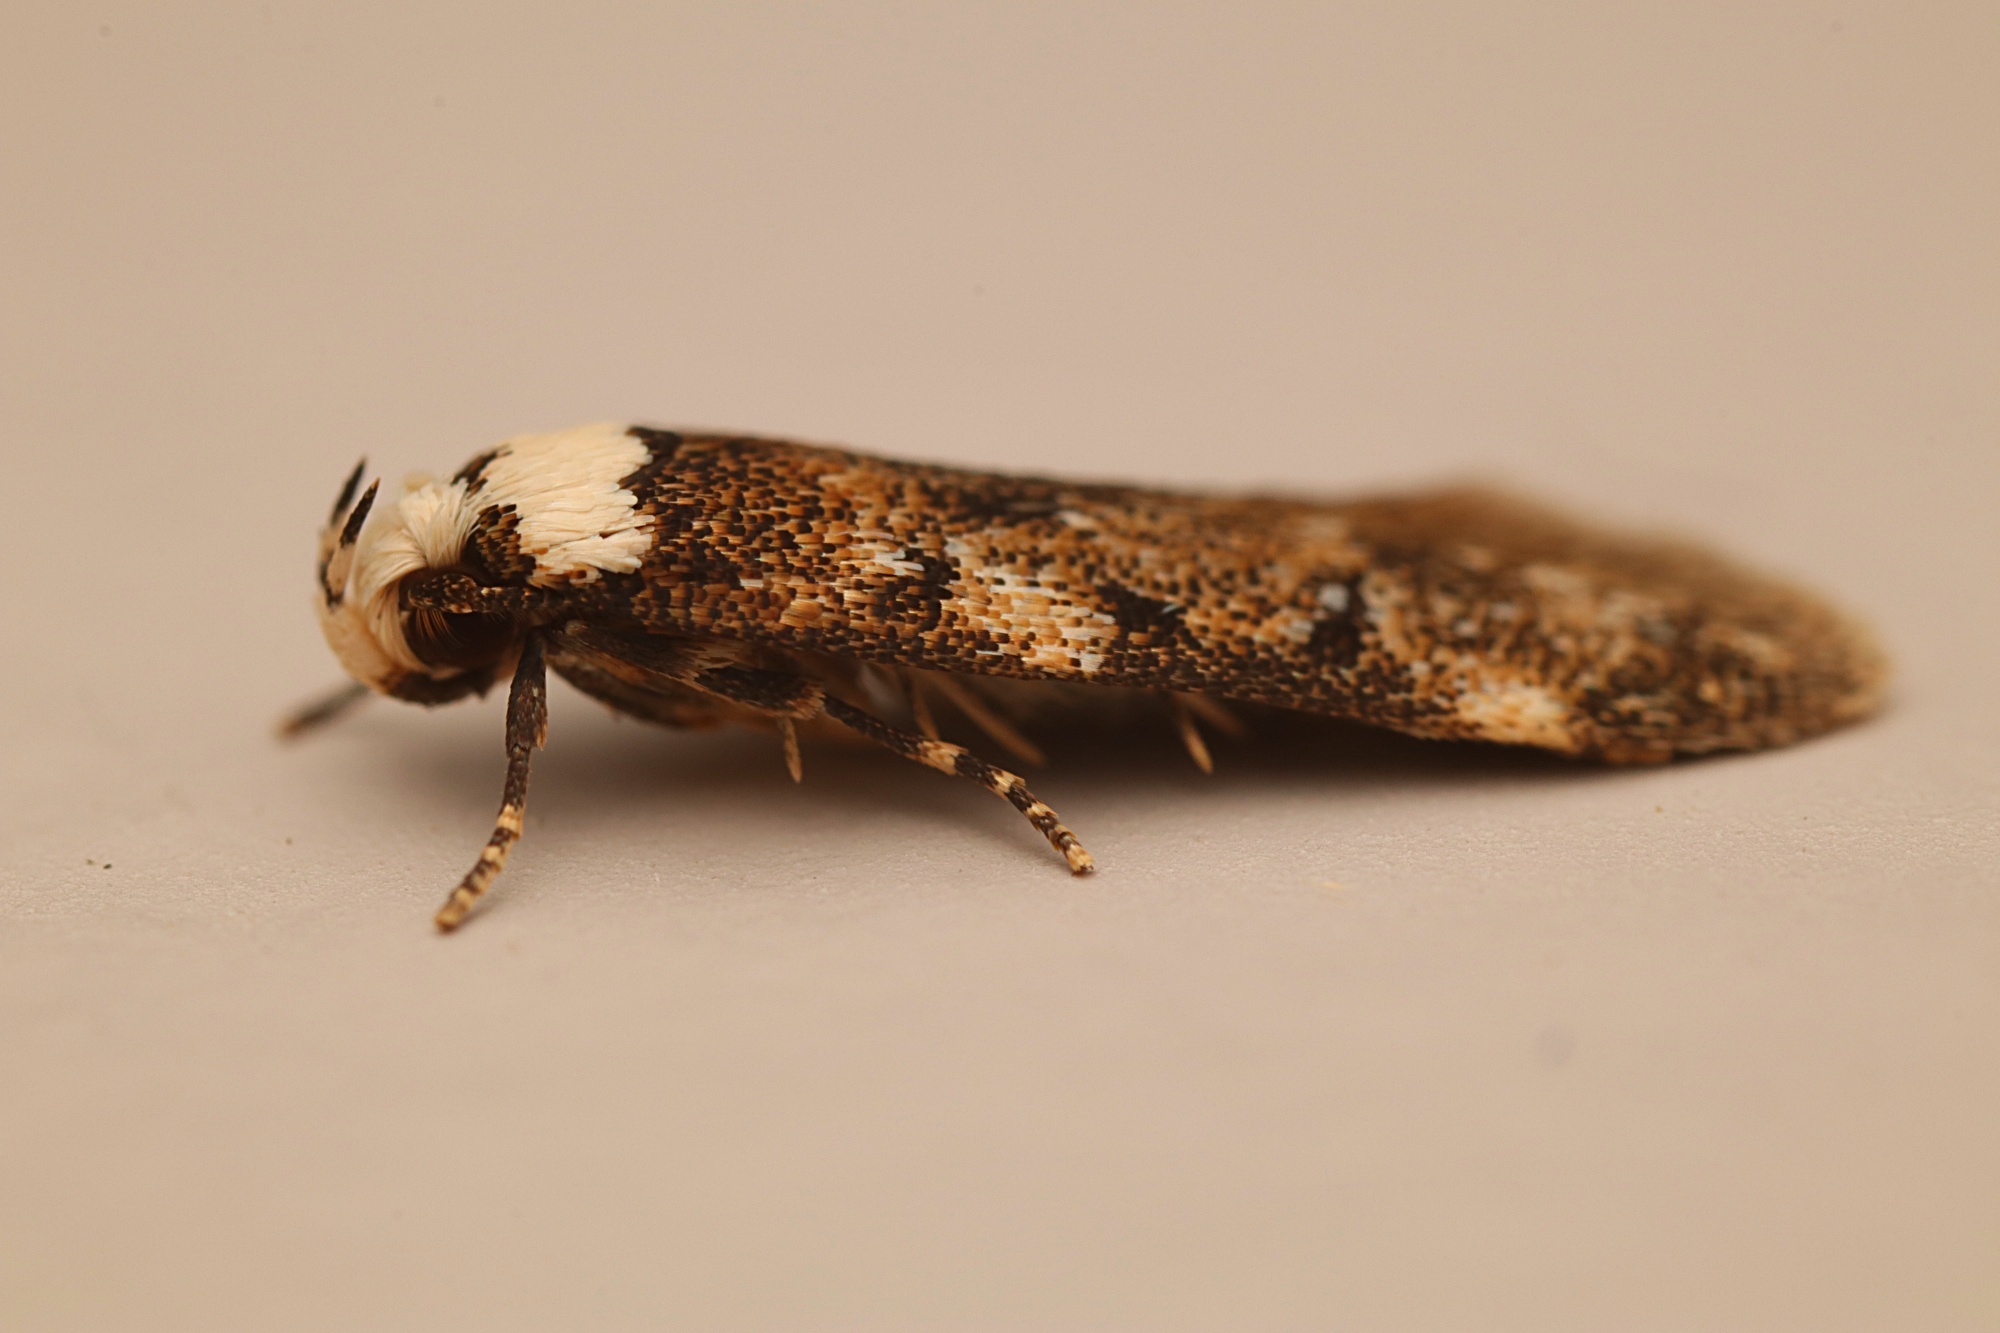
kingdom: Animalia
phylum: Arthropoda
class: Insecta
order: Lepidoptera
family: Oecophoridae
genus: Endrosis
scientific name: Endrosis sarcitrella
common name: White-shouldered house moth
